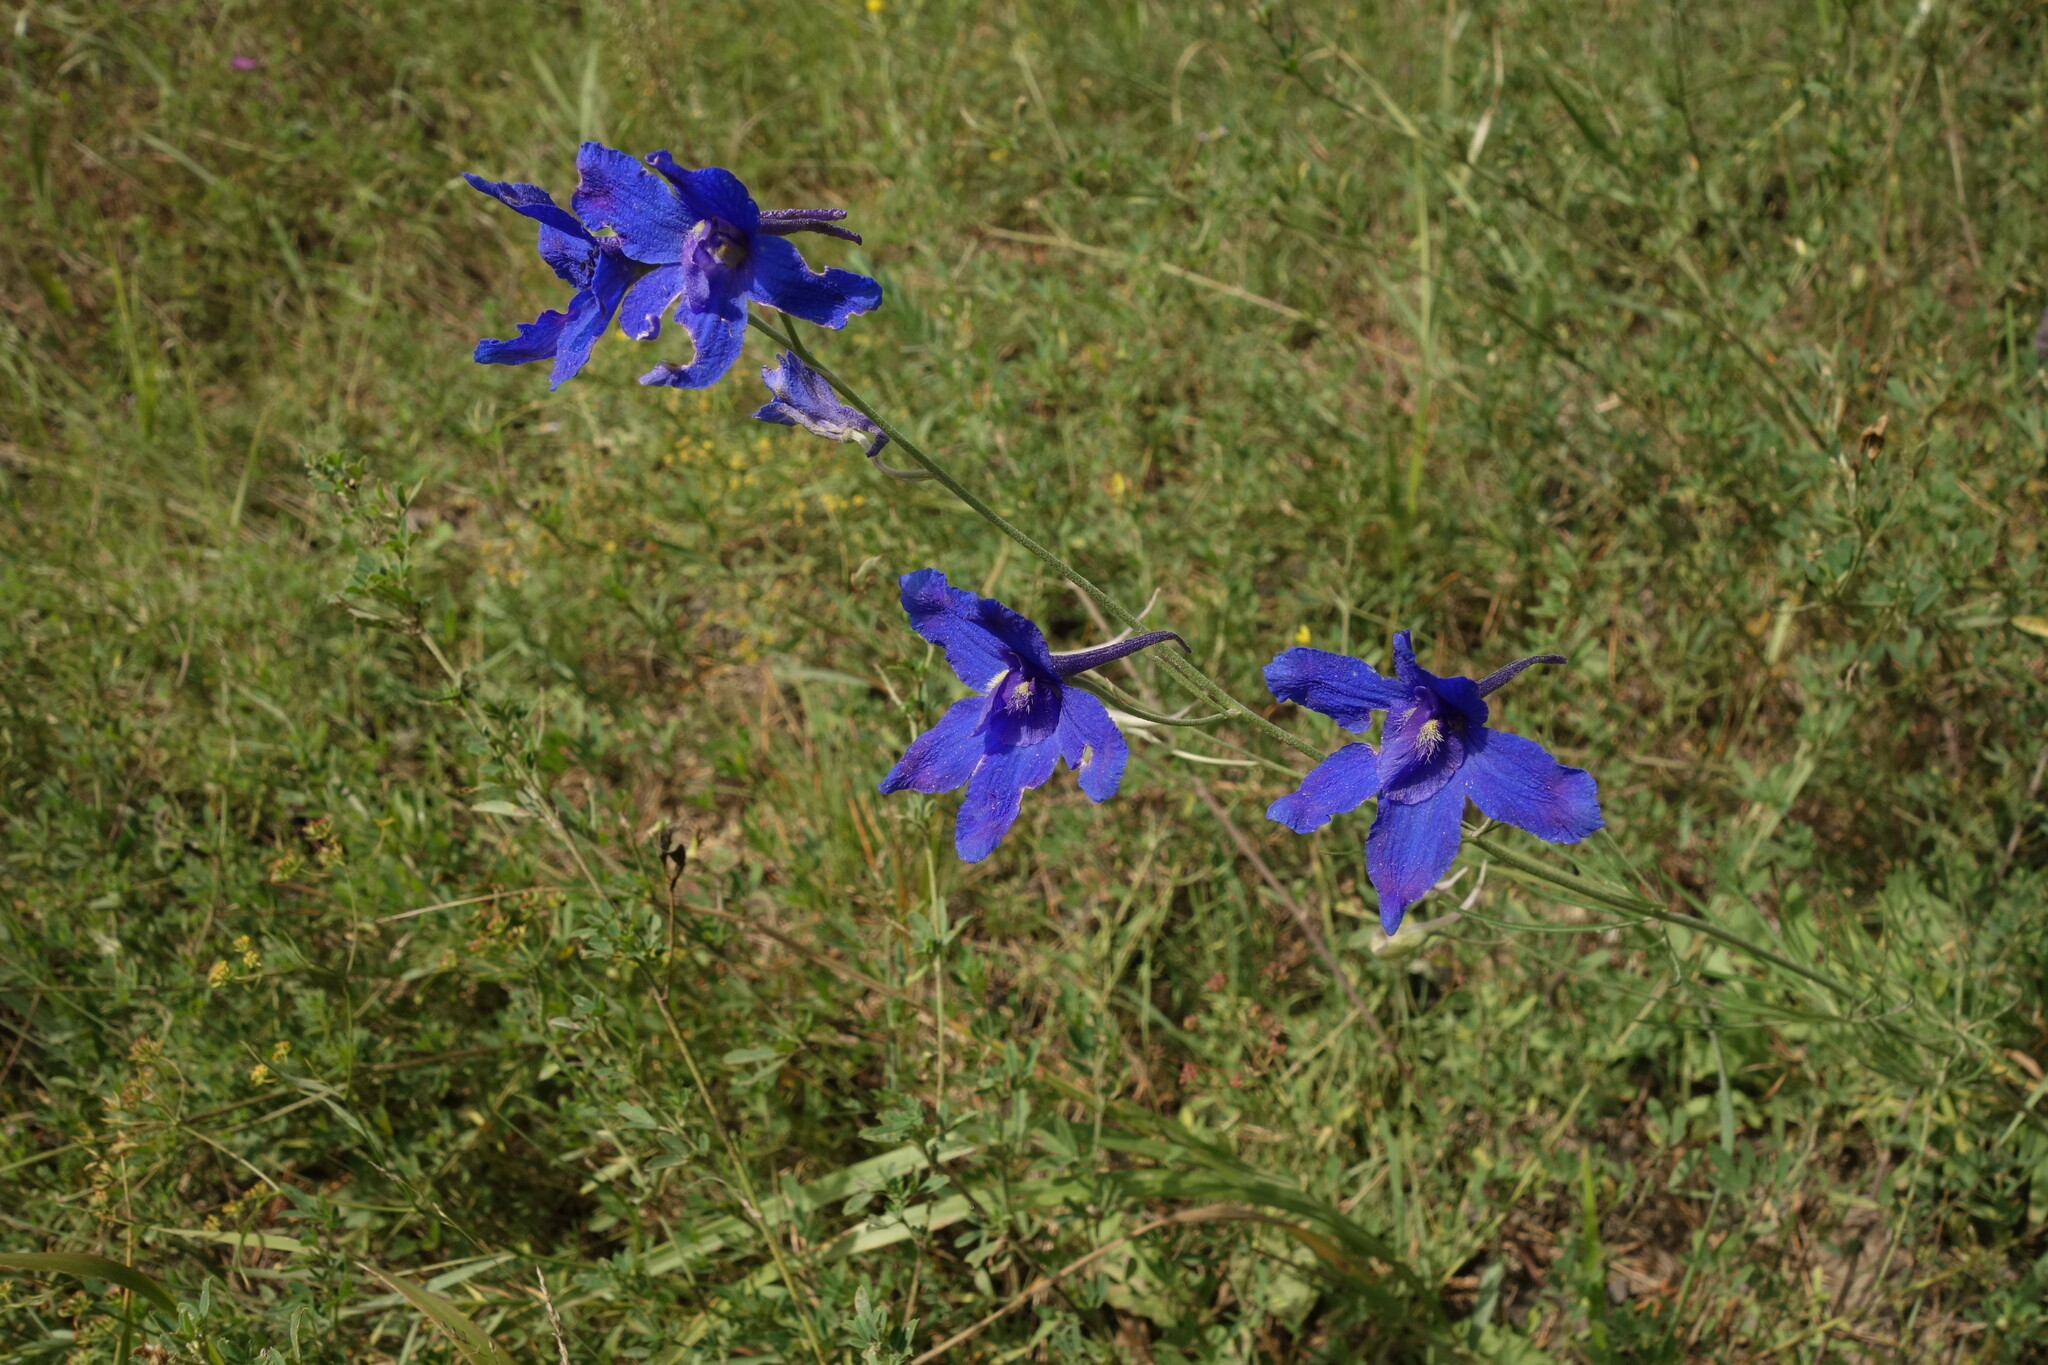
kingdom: Plantae
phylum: Tracheophyta
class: Magnoliopsida
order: Ranunculales
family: Ranunculaceae
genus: Delphinium
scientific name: Delphinium grandiflorum
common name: Siberian larkspur
